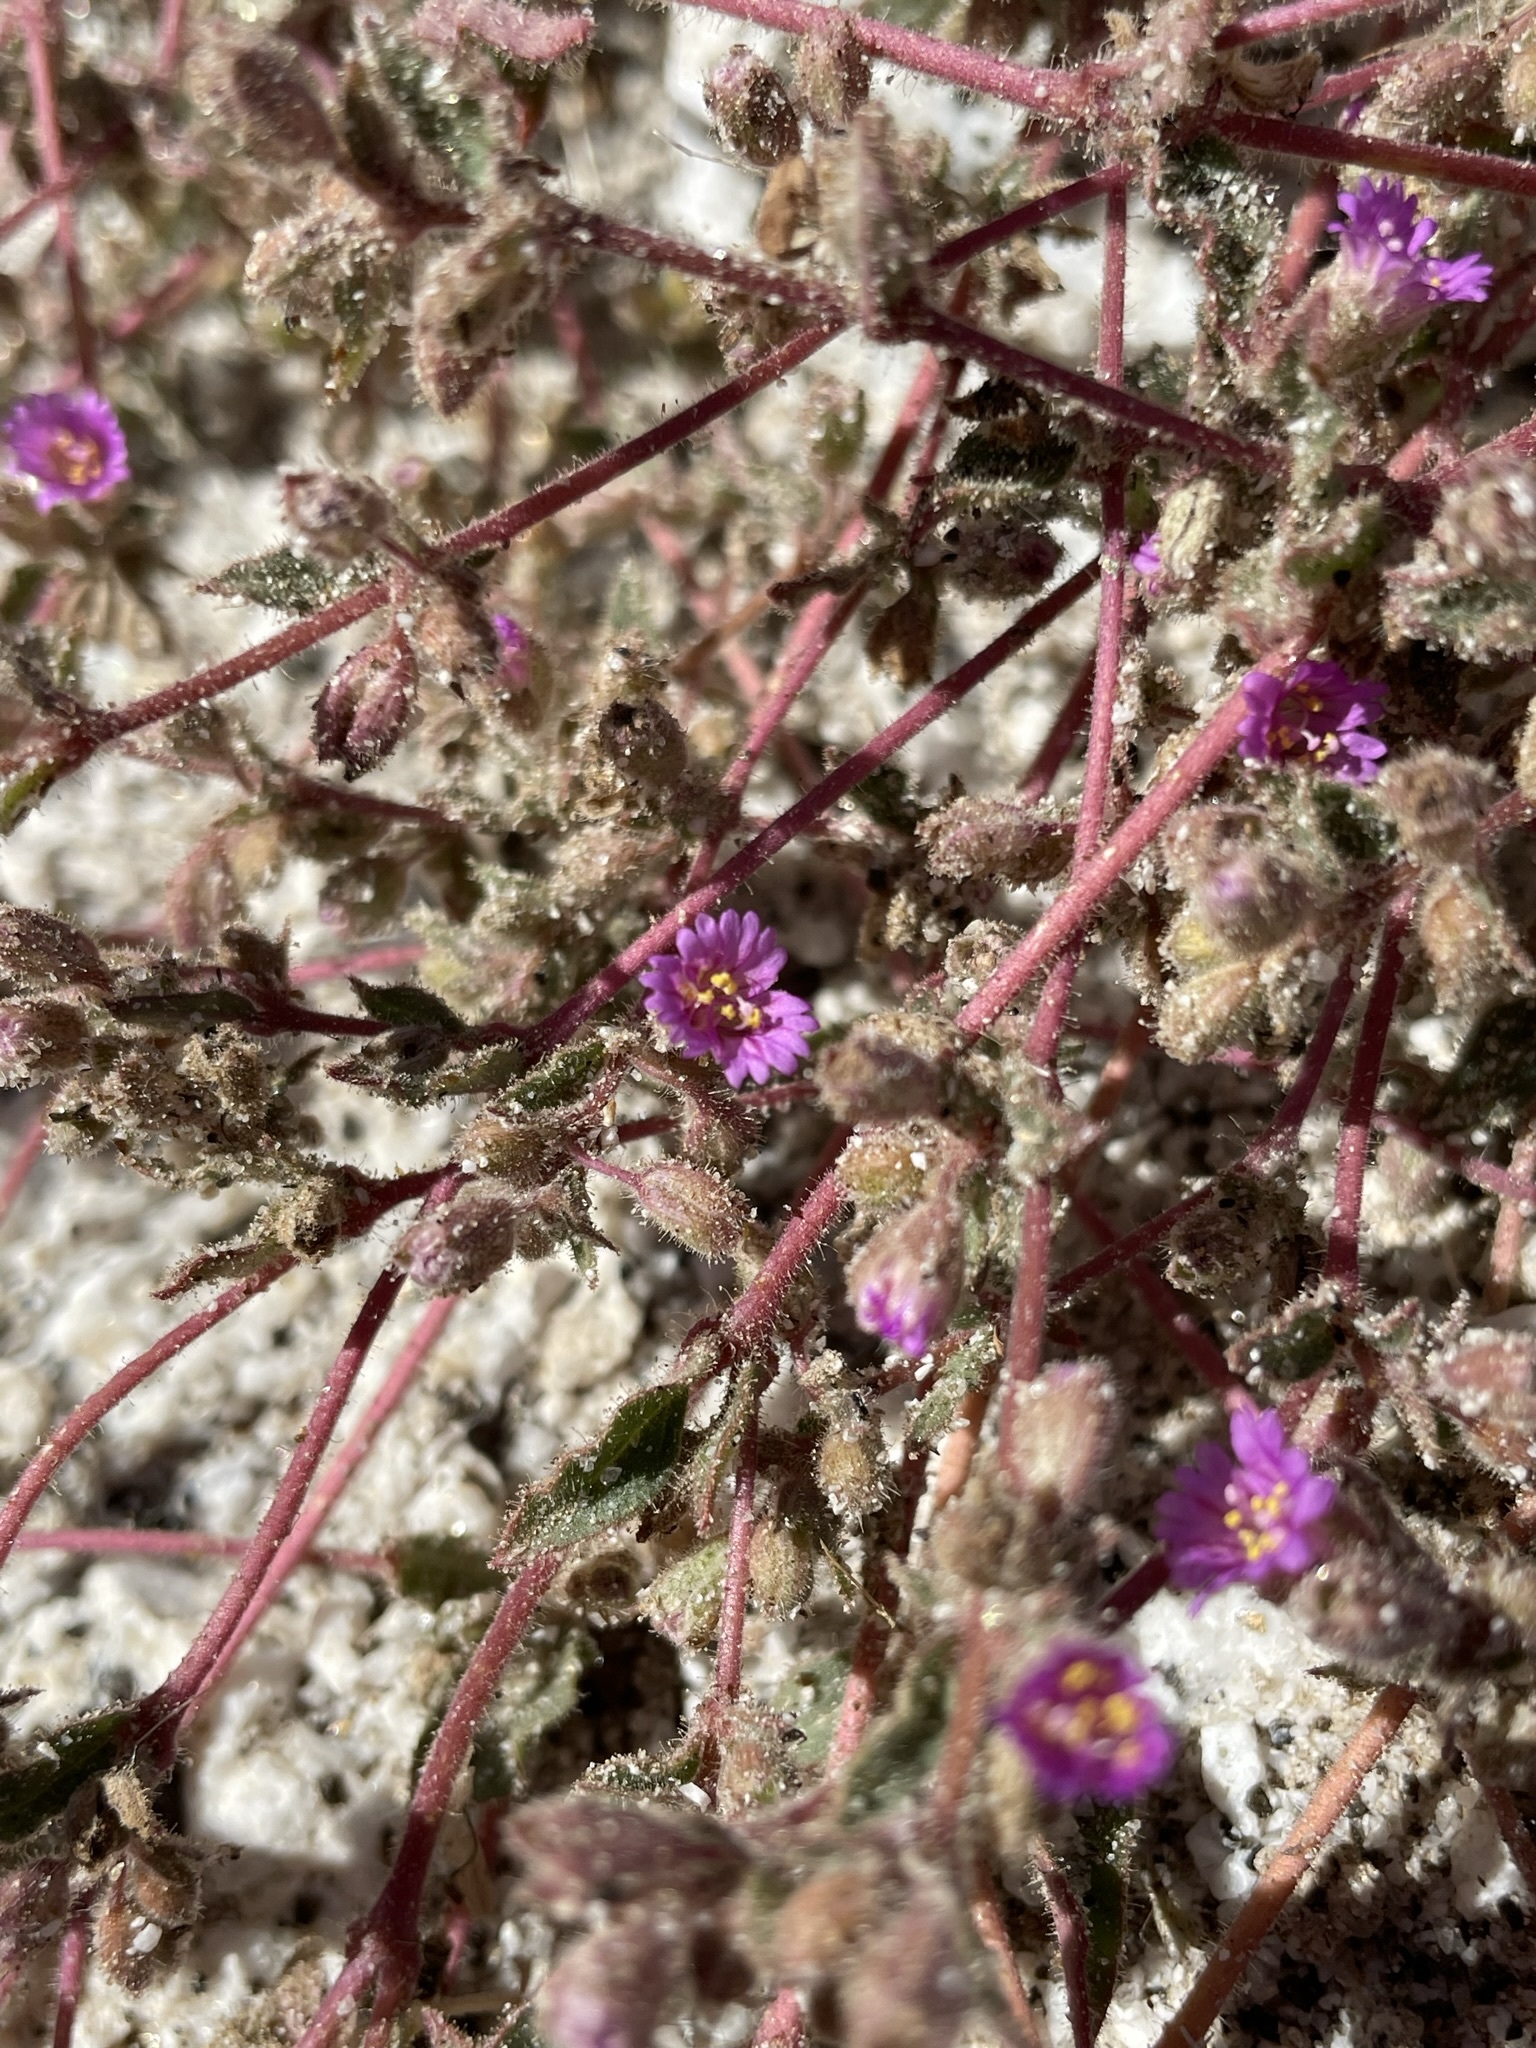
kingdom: Plantae
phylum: Tracheophyta
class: Magnoliopsida
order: Caryophyllales
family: Nyctaginaceae
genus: Allionia
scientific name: Allionia incarnata
